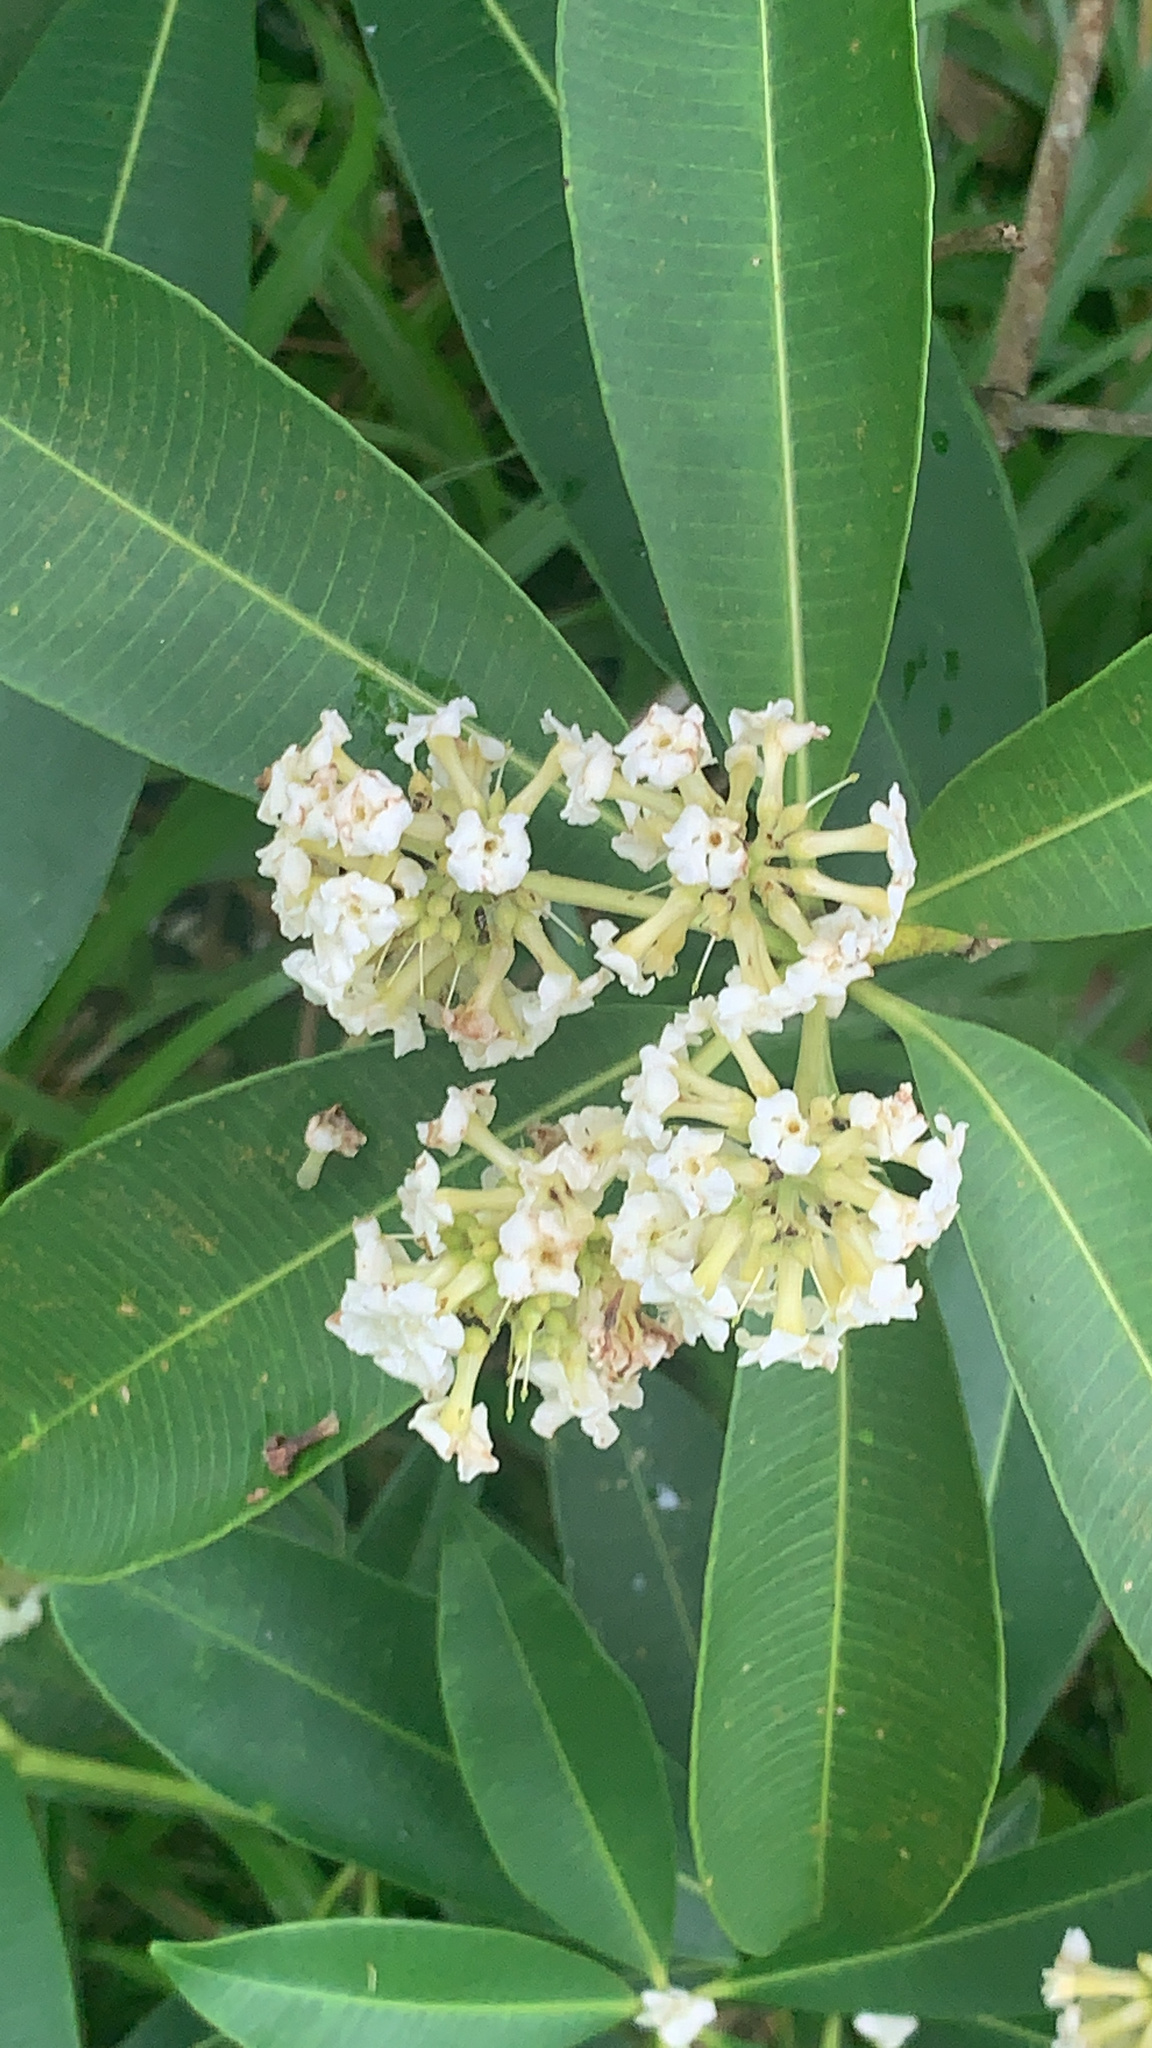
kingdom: Plantae
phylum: Tracheophyta
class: Magnoliopsida
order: Gentianales
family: Apocynaceae
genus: Alstonia
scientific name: Alstonia scholaris
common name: White cheesewood
